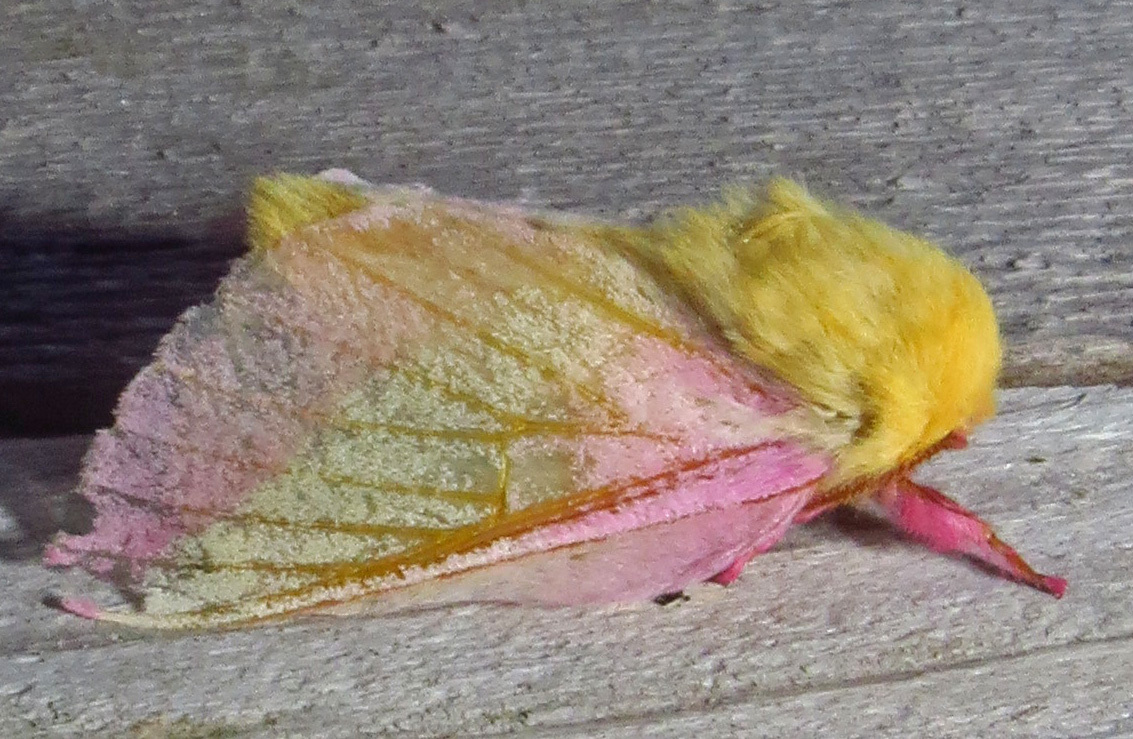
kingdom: Animalia
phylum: Arthropoda
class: Insecta
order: Lepidoptera
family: Saturniidae
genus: Dryocampa
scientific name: Dryocampa rubicunda
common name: Rosy maple moth
